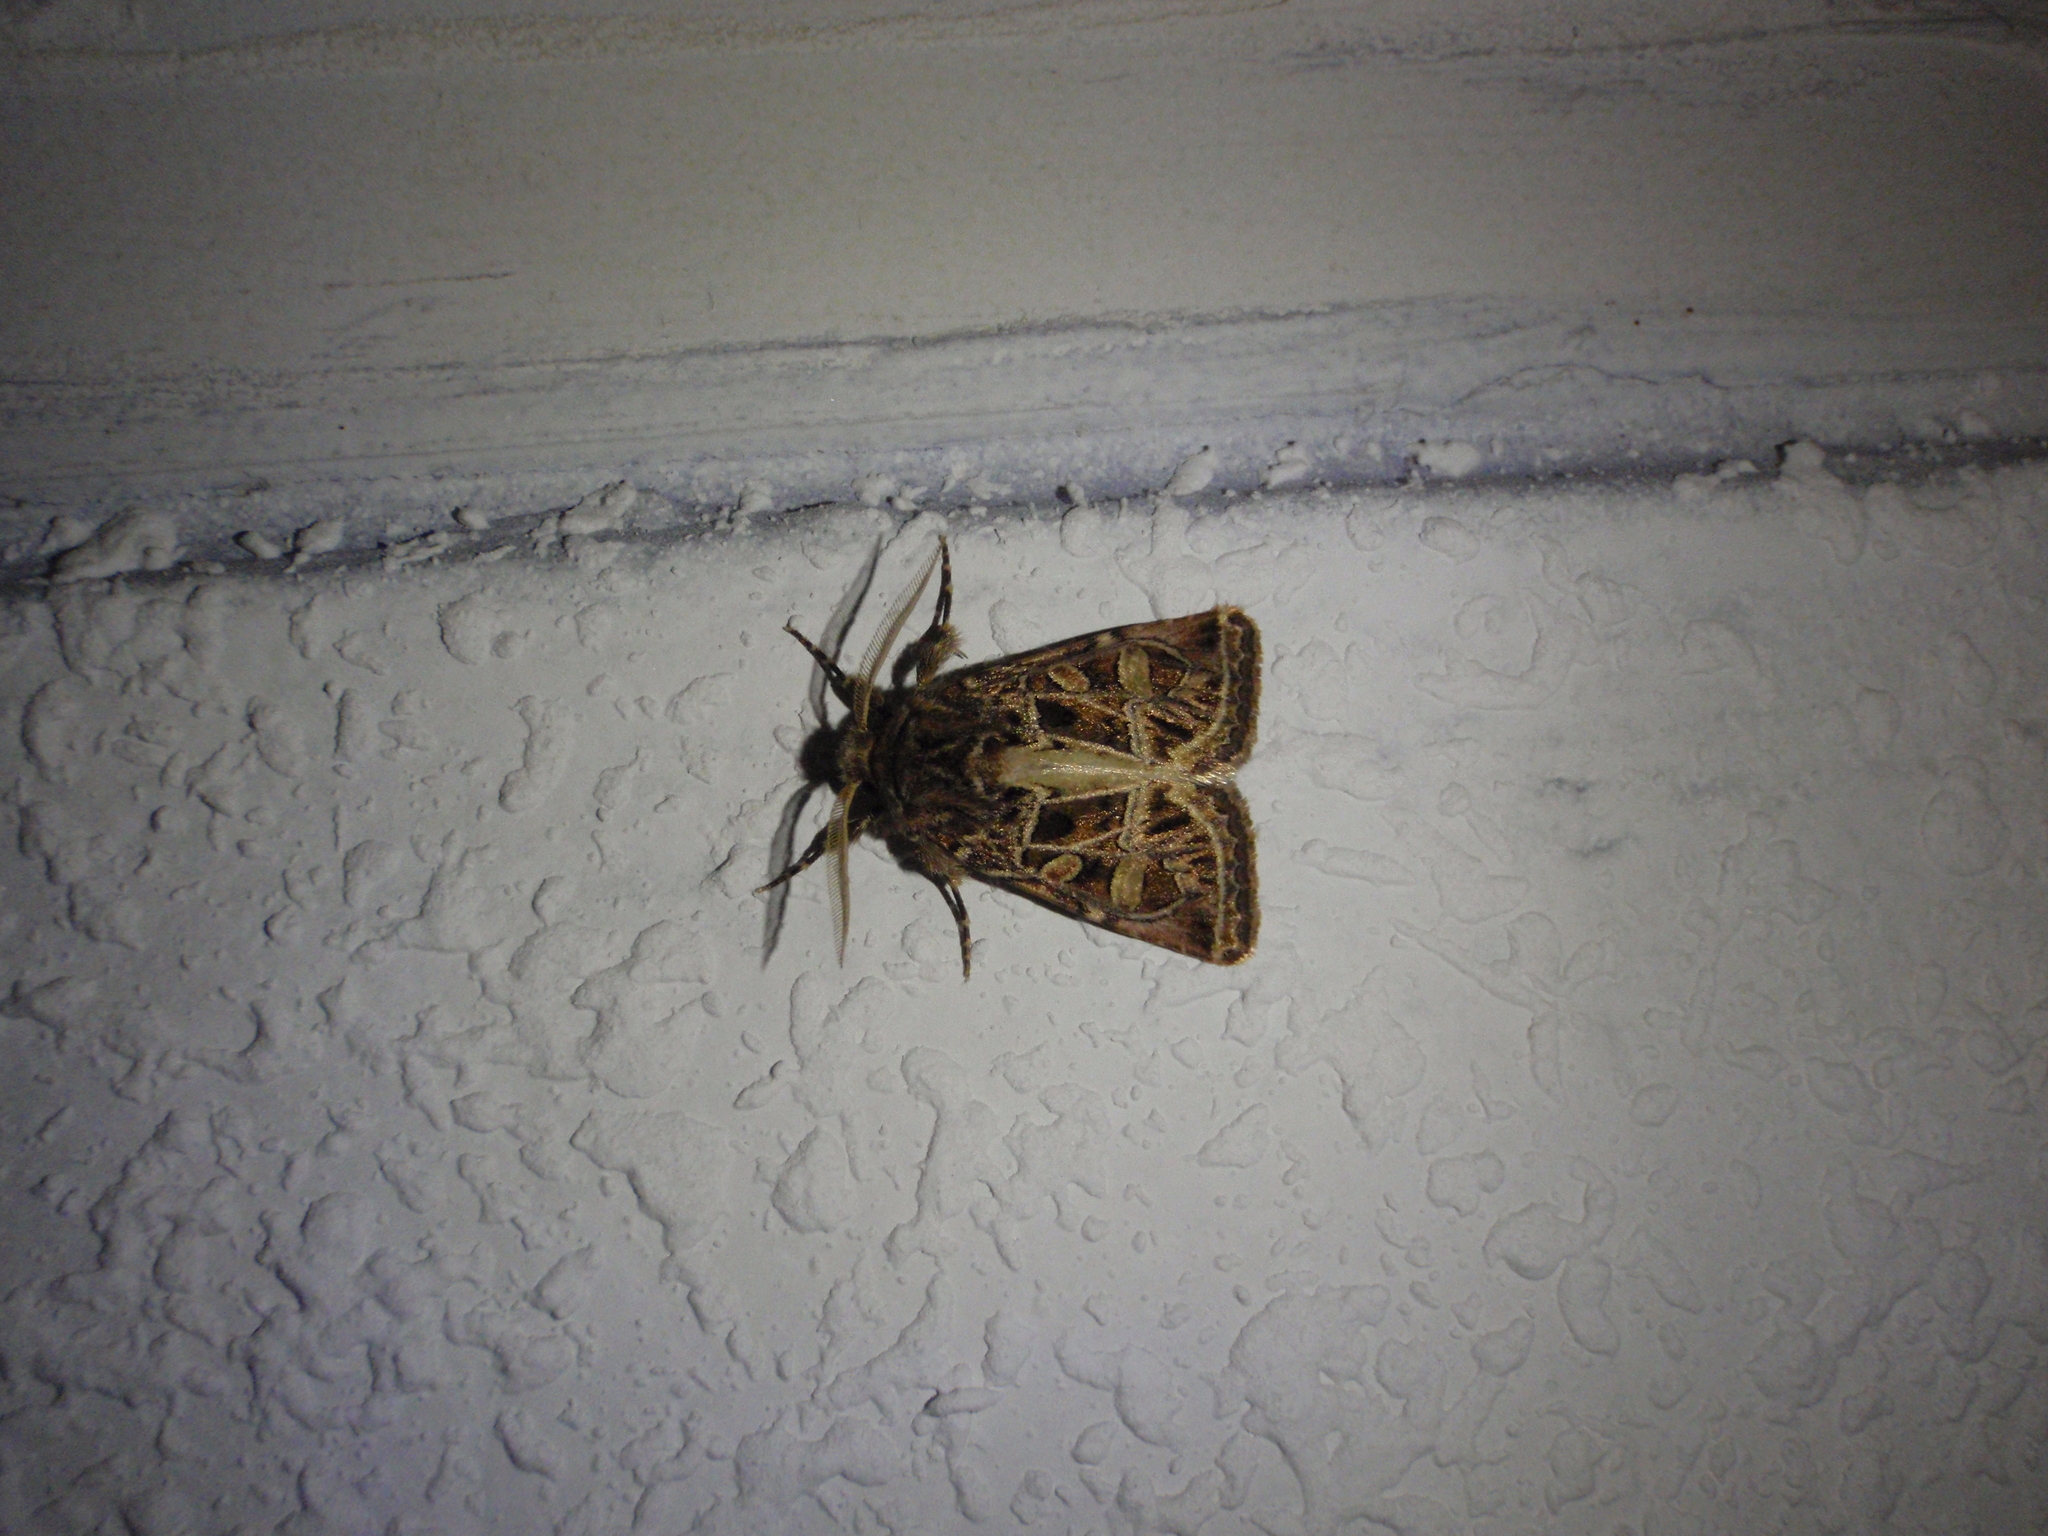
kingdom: Animalia
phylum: Arthropoda
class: Insecta
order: Lepidoptera
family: Noctuidae
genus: Leucochlaena
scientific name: Leucochlaena oditis
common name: Beautiful gothic
